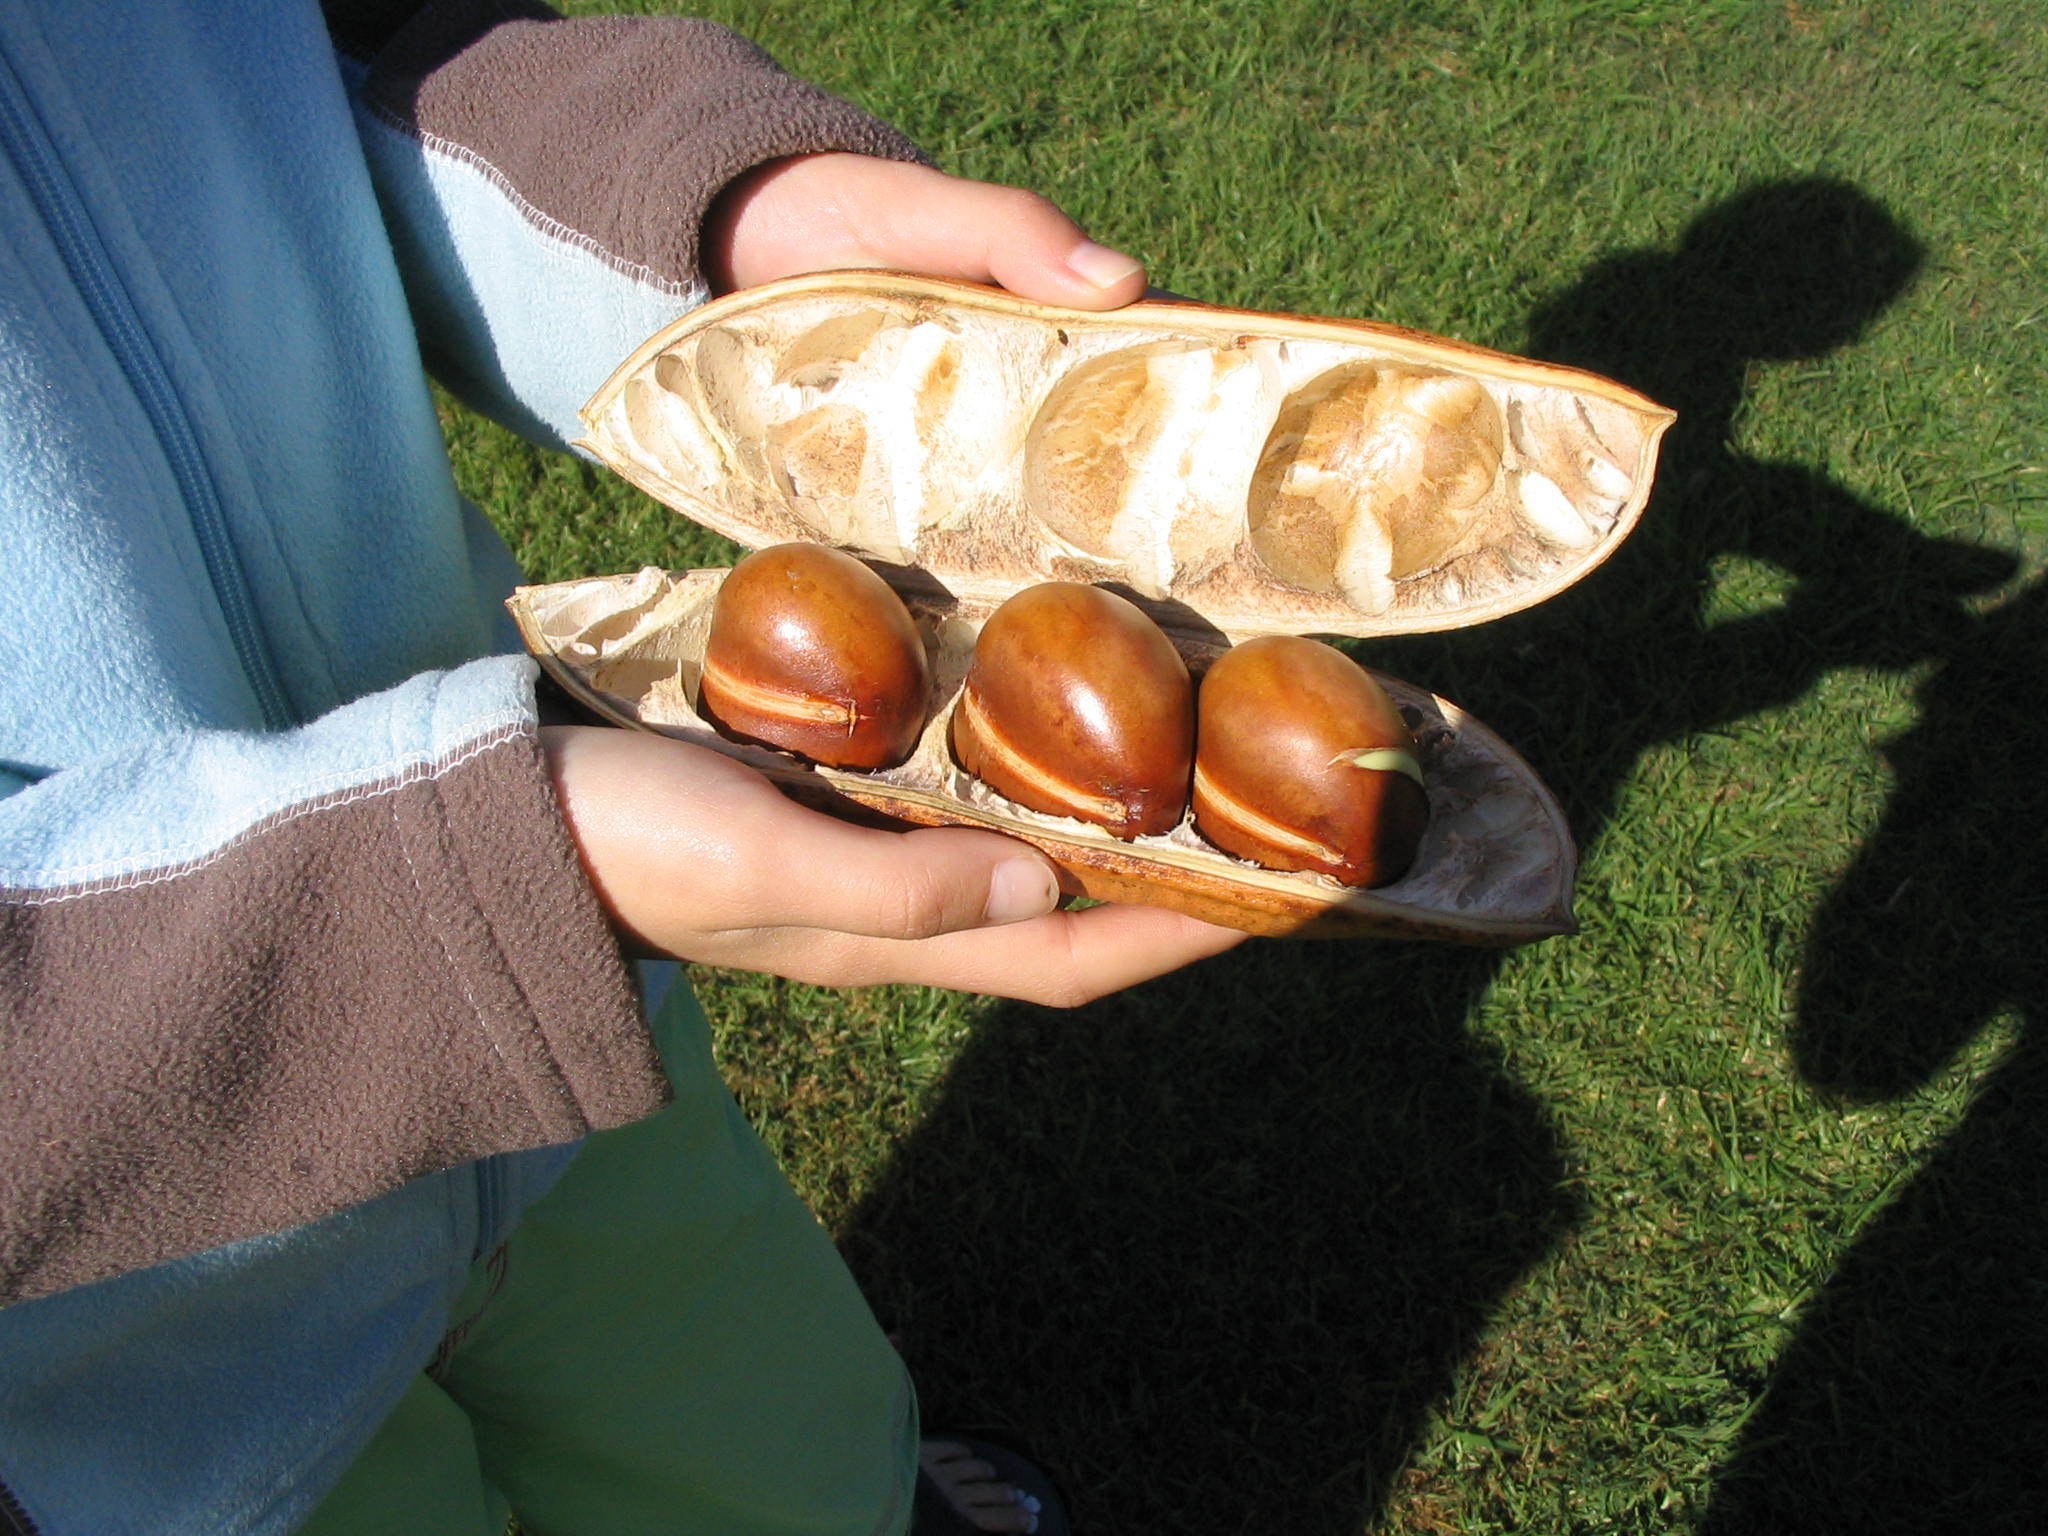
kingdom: Plantae
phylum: Tracheophyta
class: Magnoliopsida
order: Fabales
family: Fabaceae
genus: Castanospermum
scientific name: Castanospermum australe
